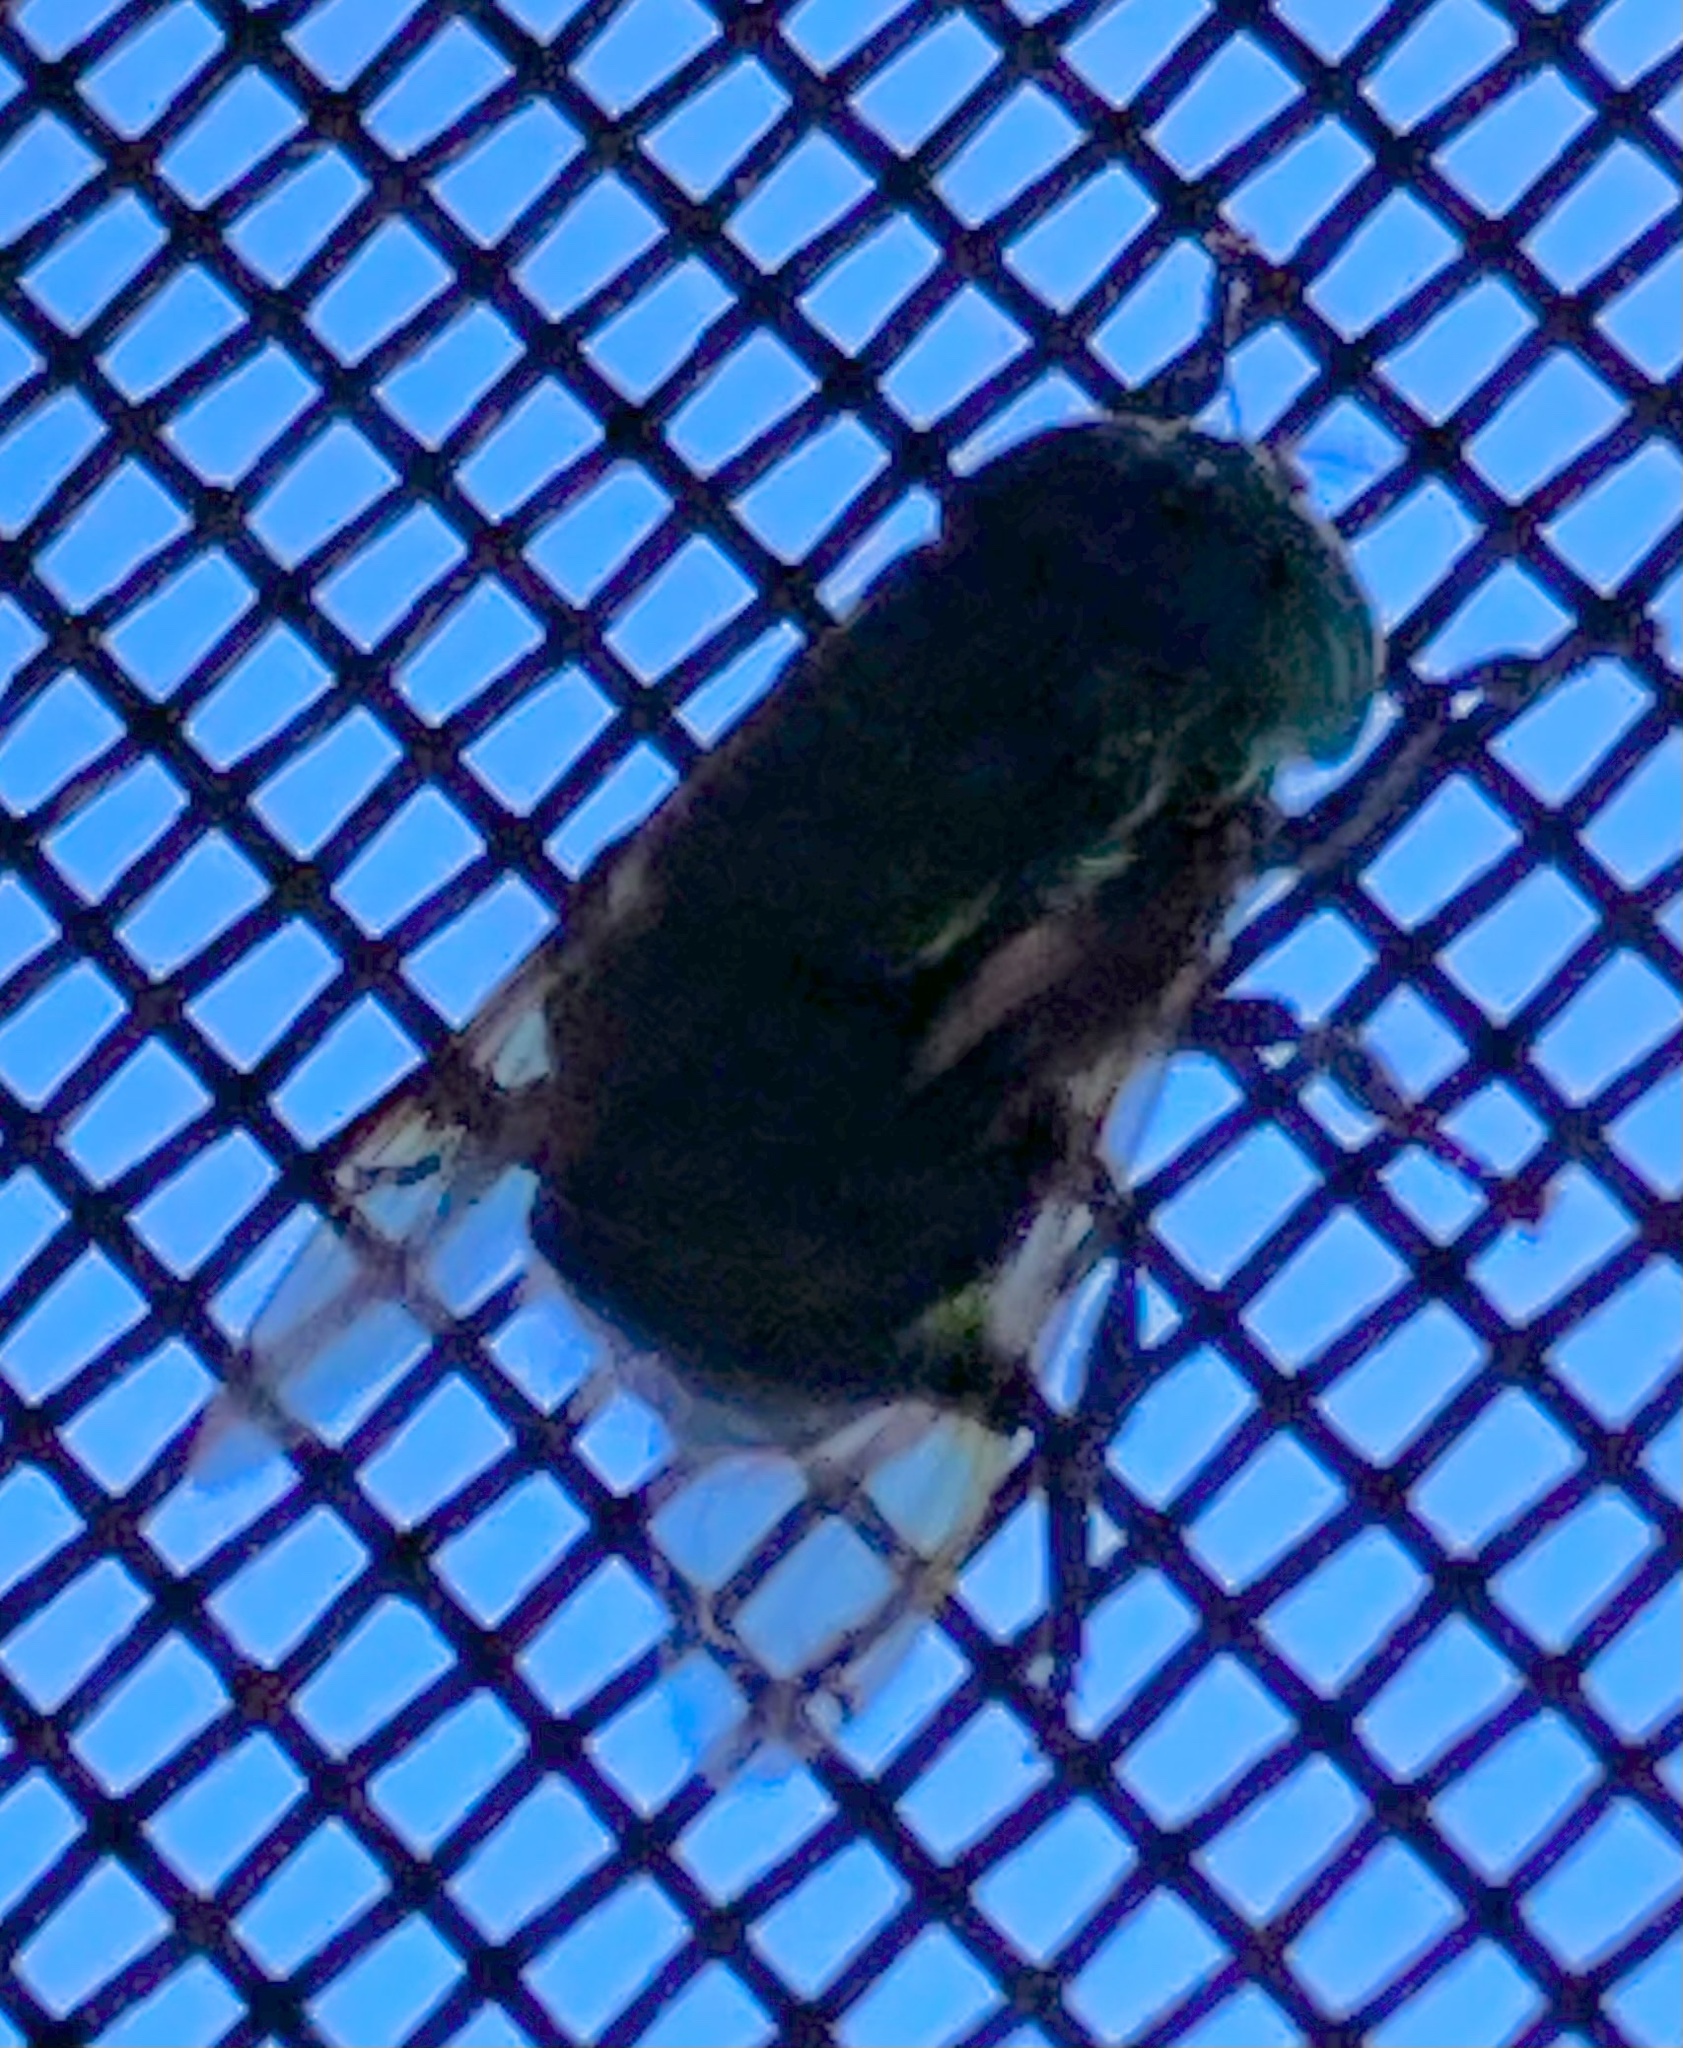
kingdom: Animalia
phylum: Arthropoda
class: Insecta
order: Diptera
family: Syrphidae
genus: Ornidia
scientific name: Ornidia obesa
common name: Syrphid fly
